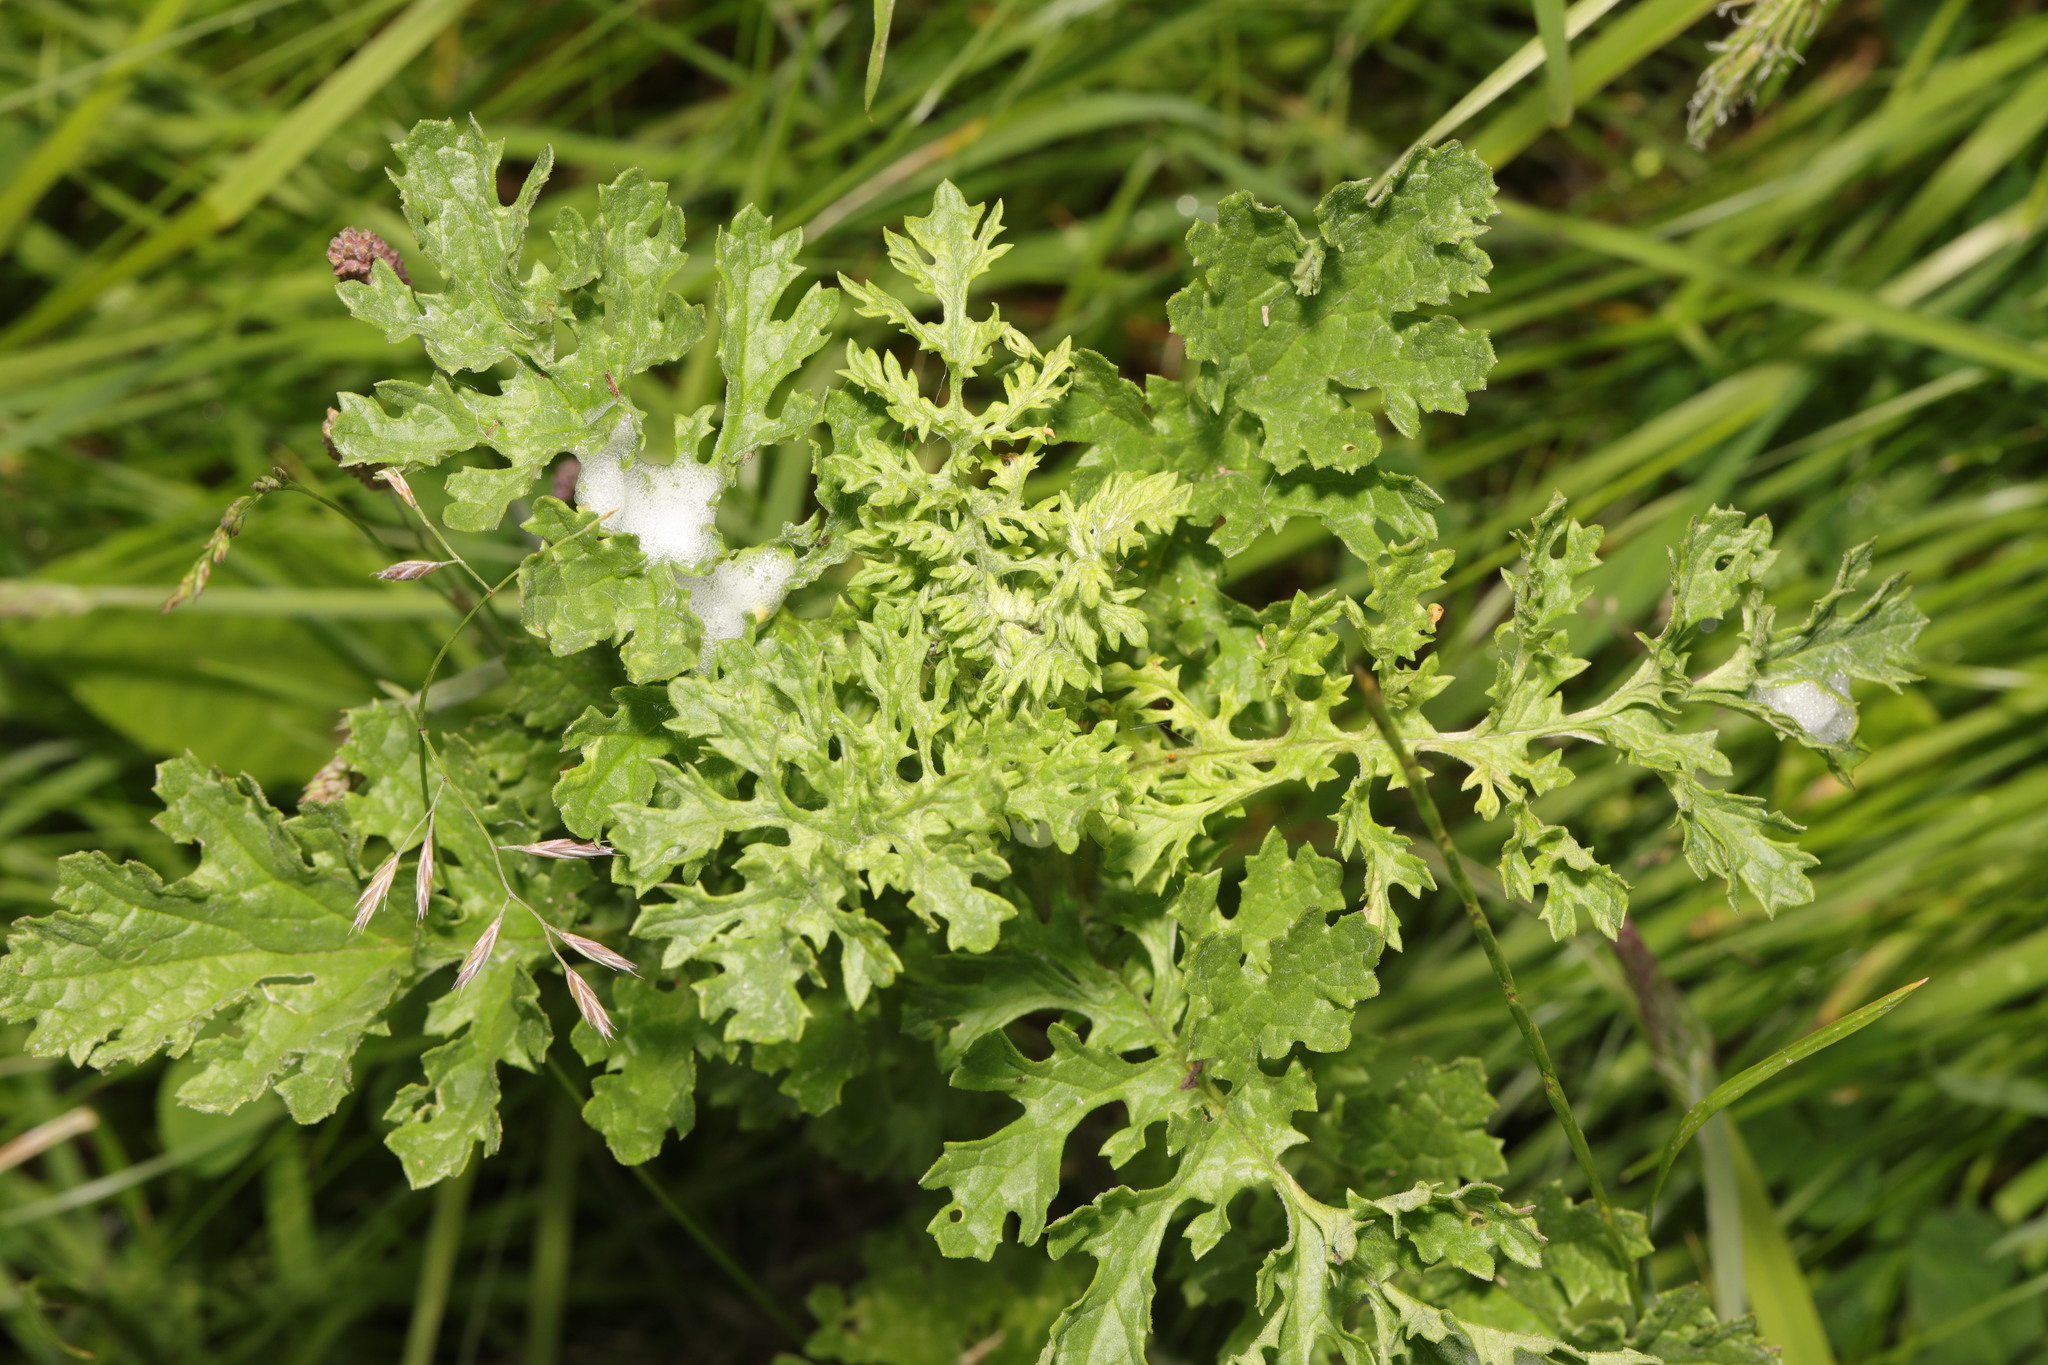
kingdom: Plantae
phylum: Tracheophyta
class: Magnoliopsida
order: Asterales
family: Asteraceae
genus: Jacobaea
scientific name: Jacobaea vulgaris
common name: Stinking willie
